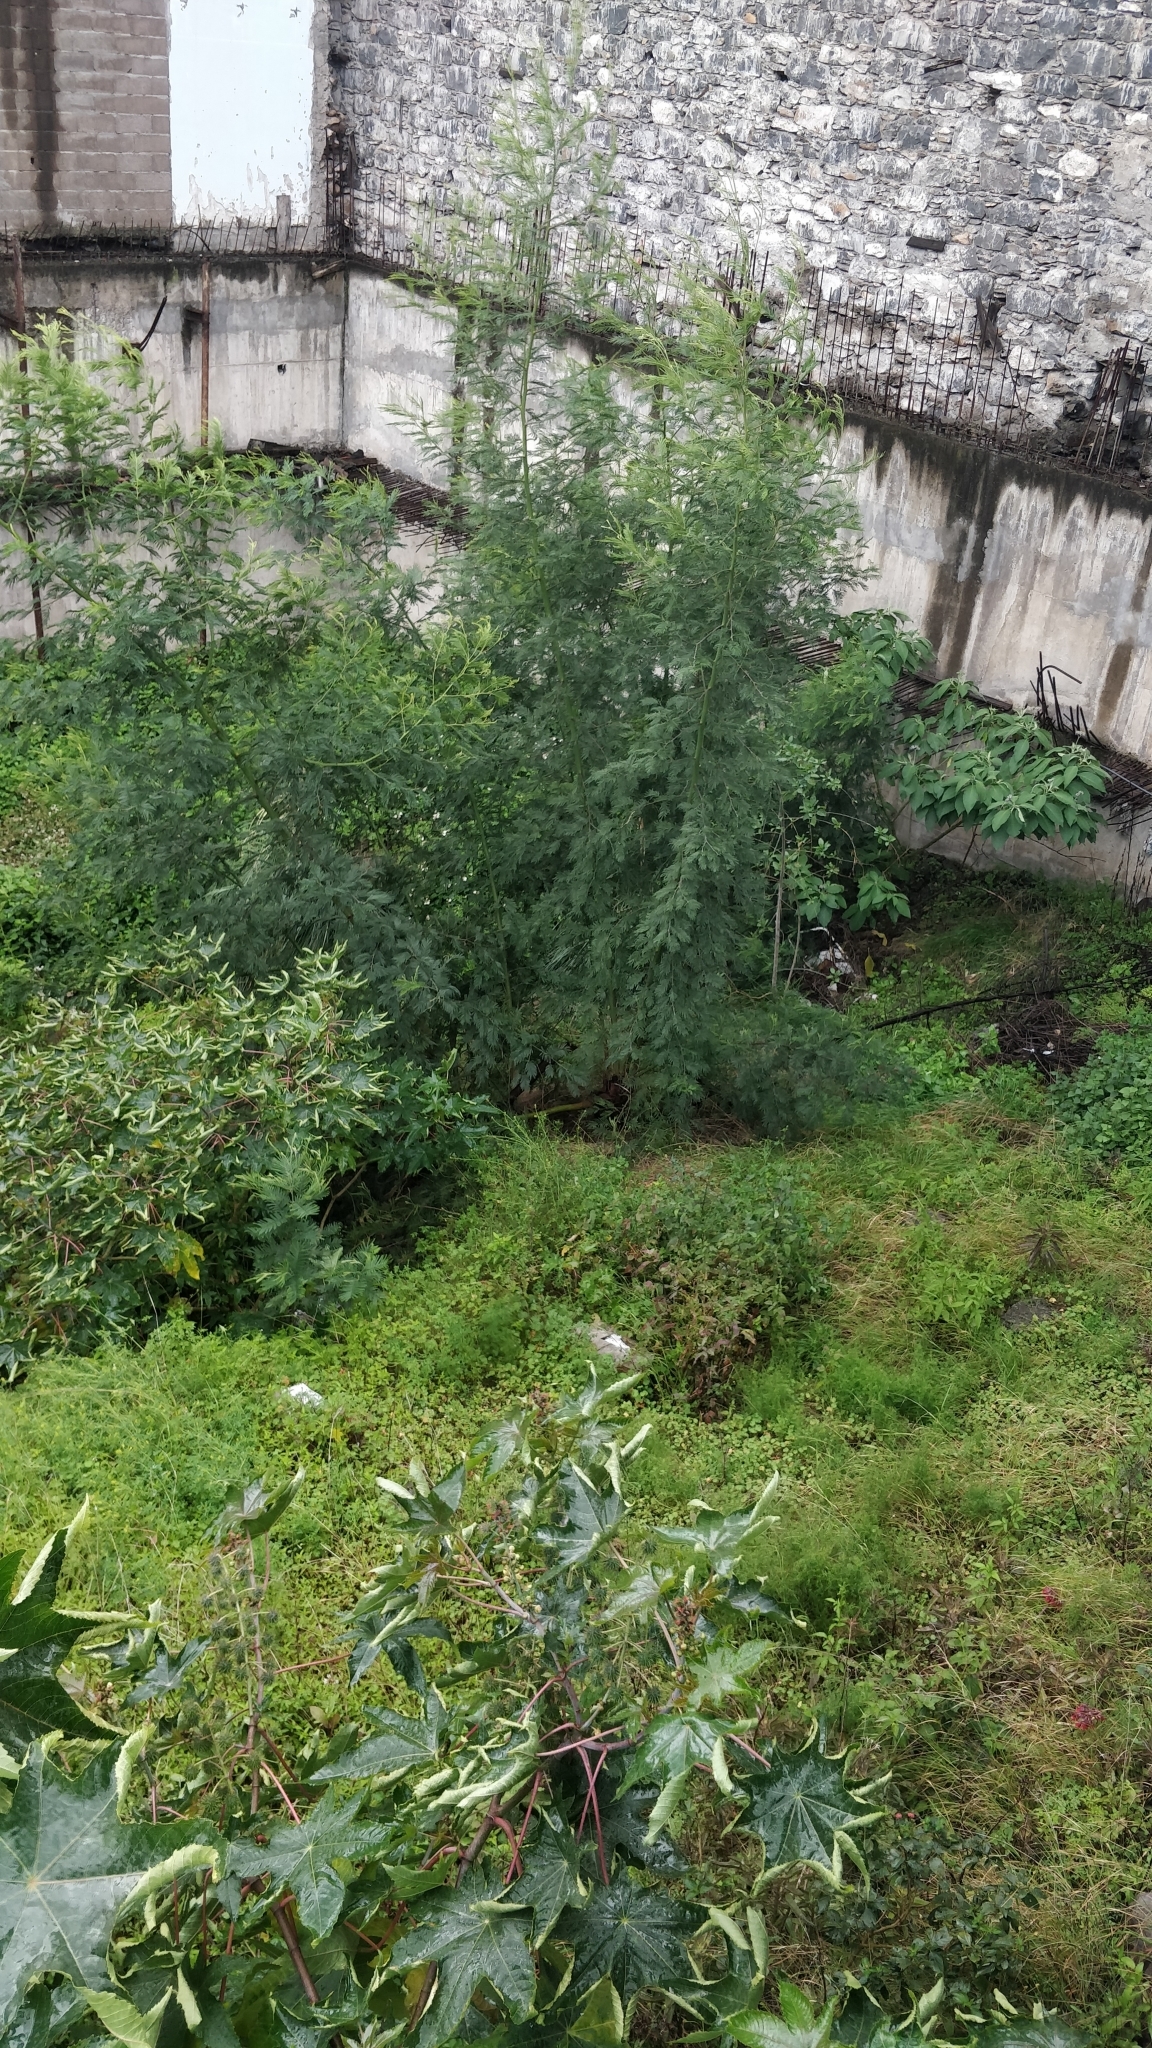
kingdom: Plantae
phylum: Tracheophyta
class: Magnoliopsida
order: Fabales
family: Fabaceae
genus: Acacia
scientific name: Acacia mearnsii
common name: Black wattle
